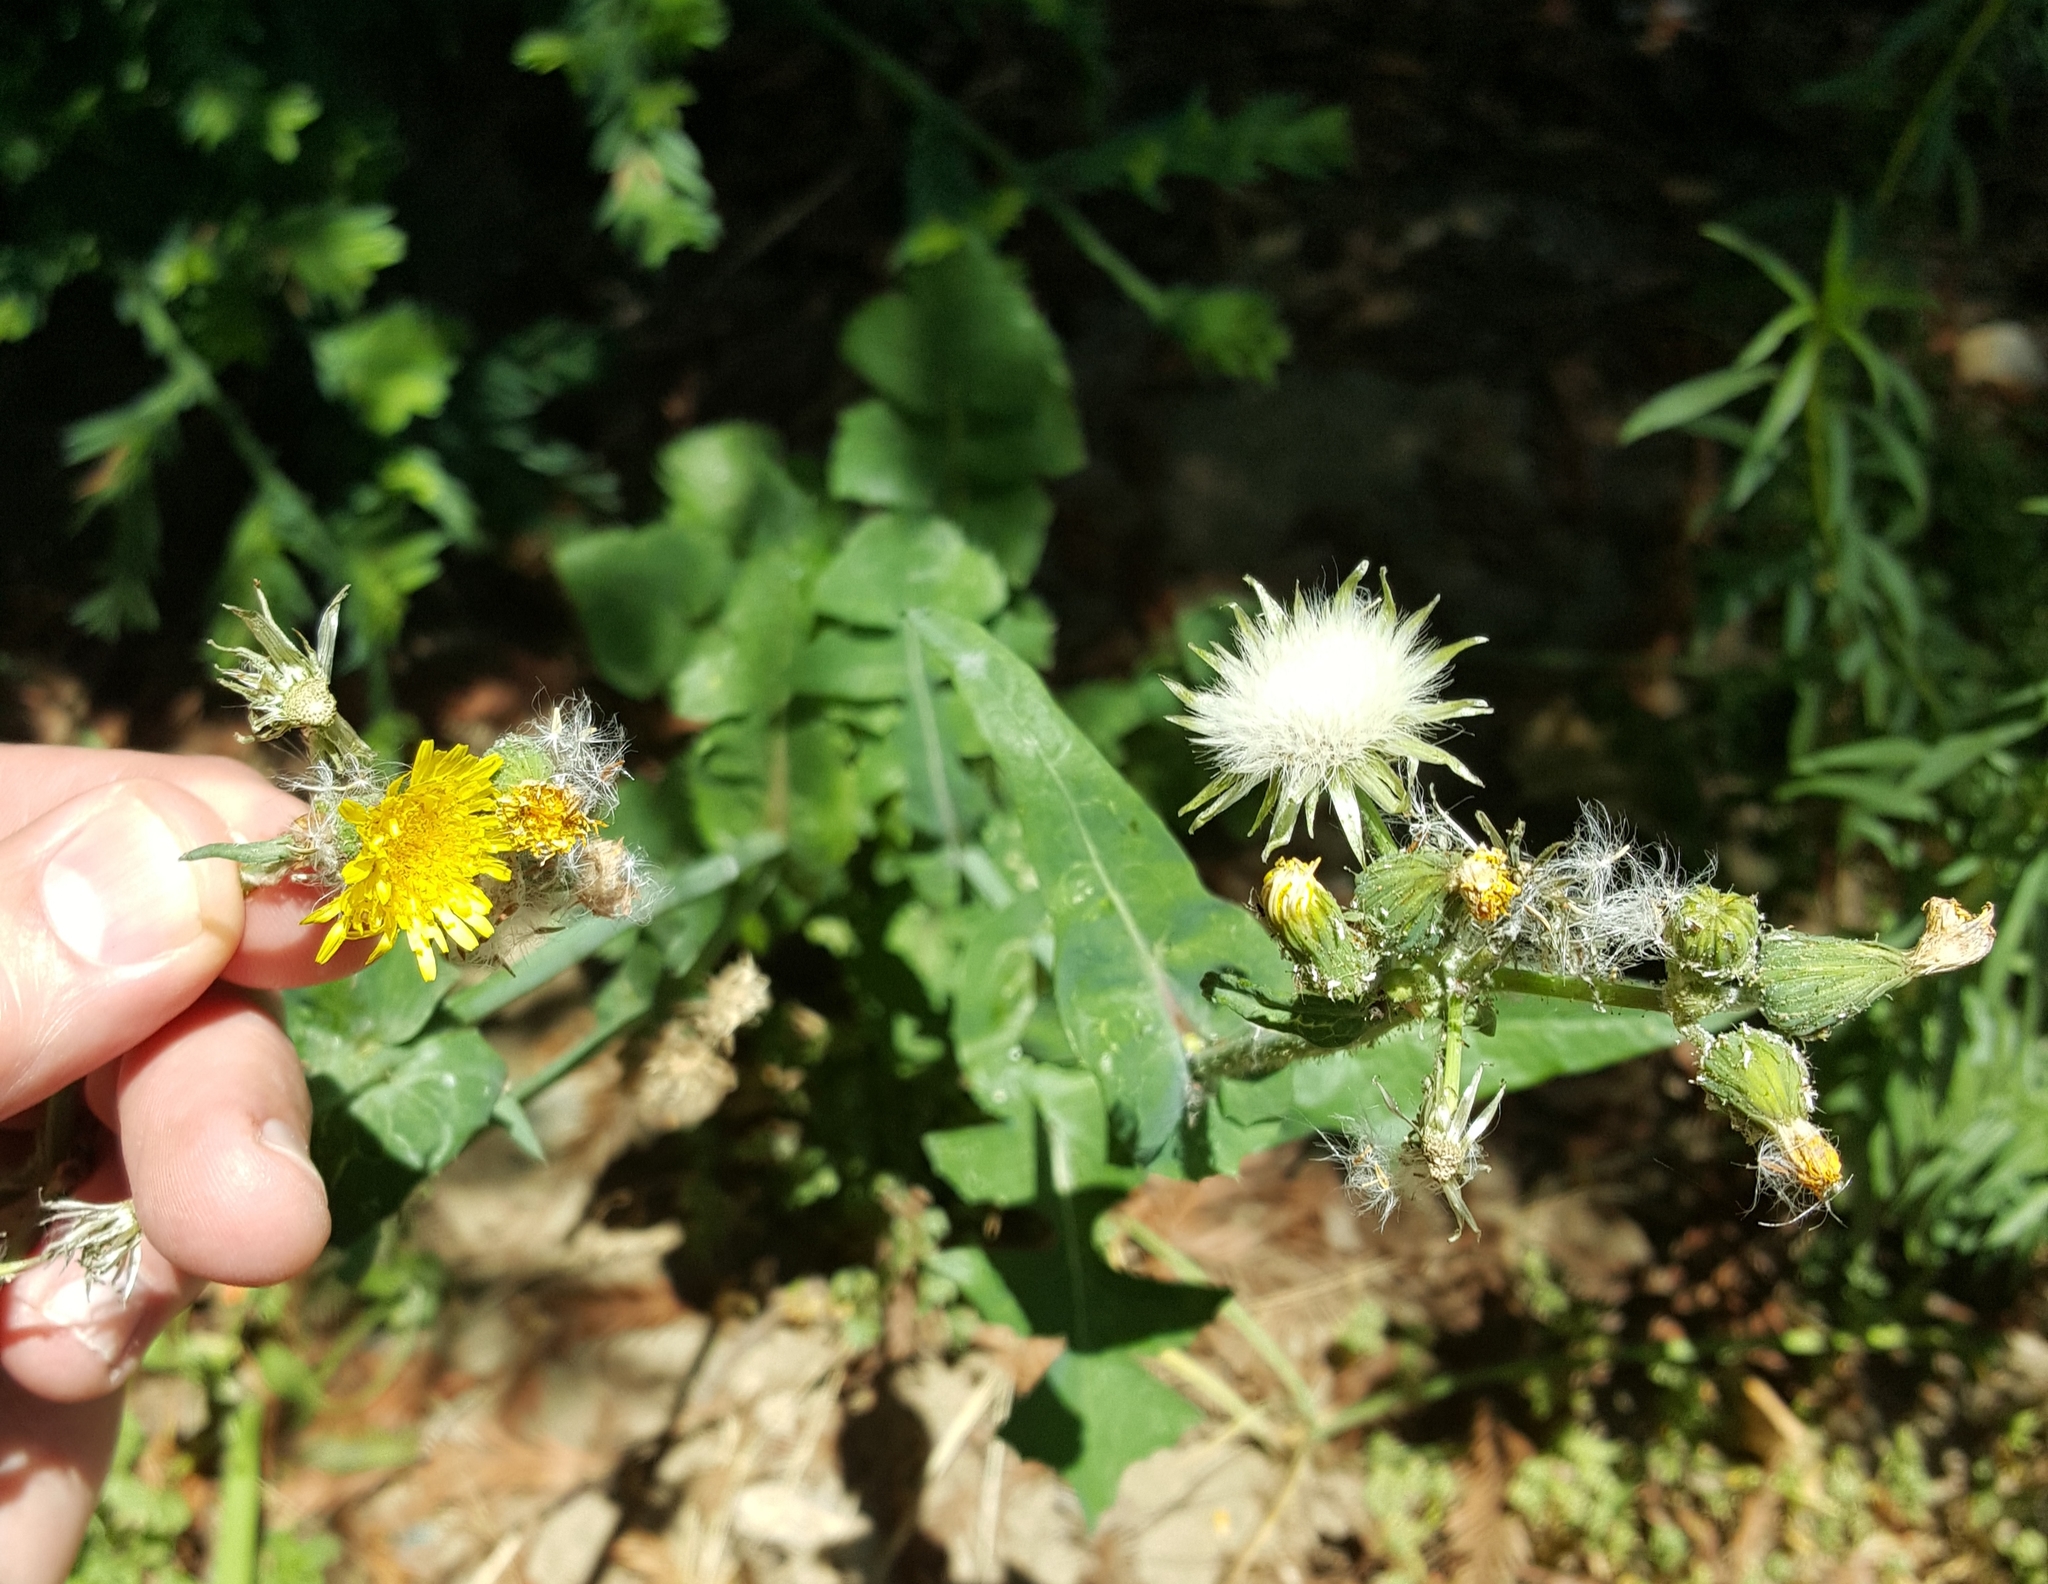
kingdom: Plantae
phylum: Tracheophyta
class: Magnoliopsida
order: Asterales
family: Asteraceae
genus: Sonchus
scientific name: Sonchus oleraceus
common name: Common sowthistle
